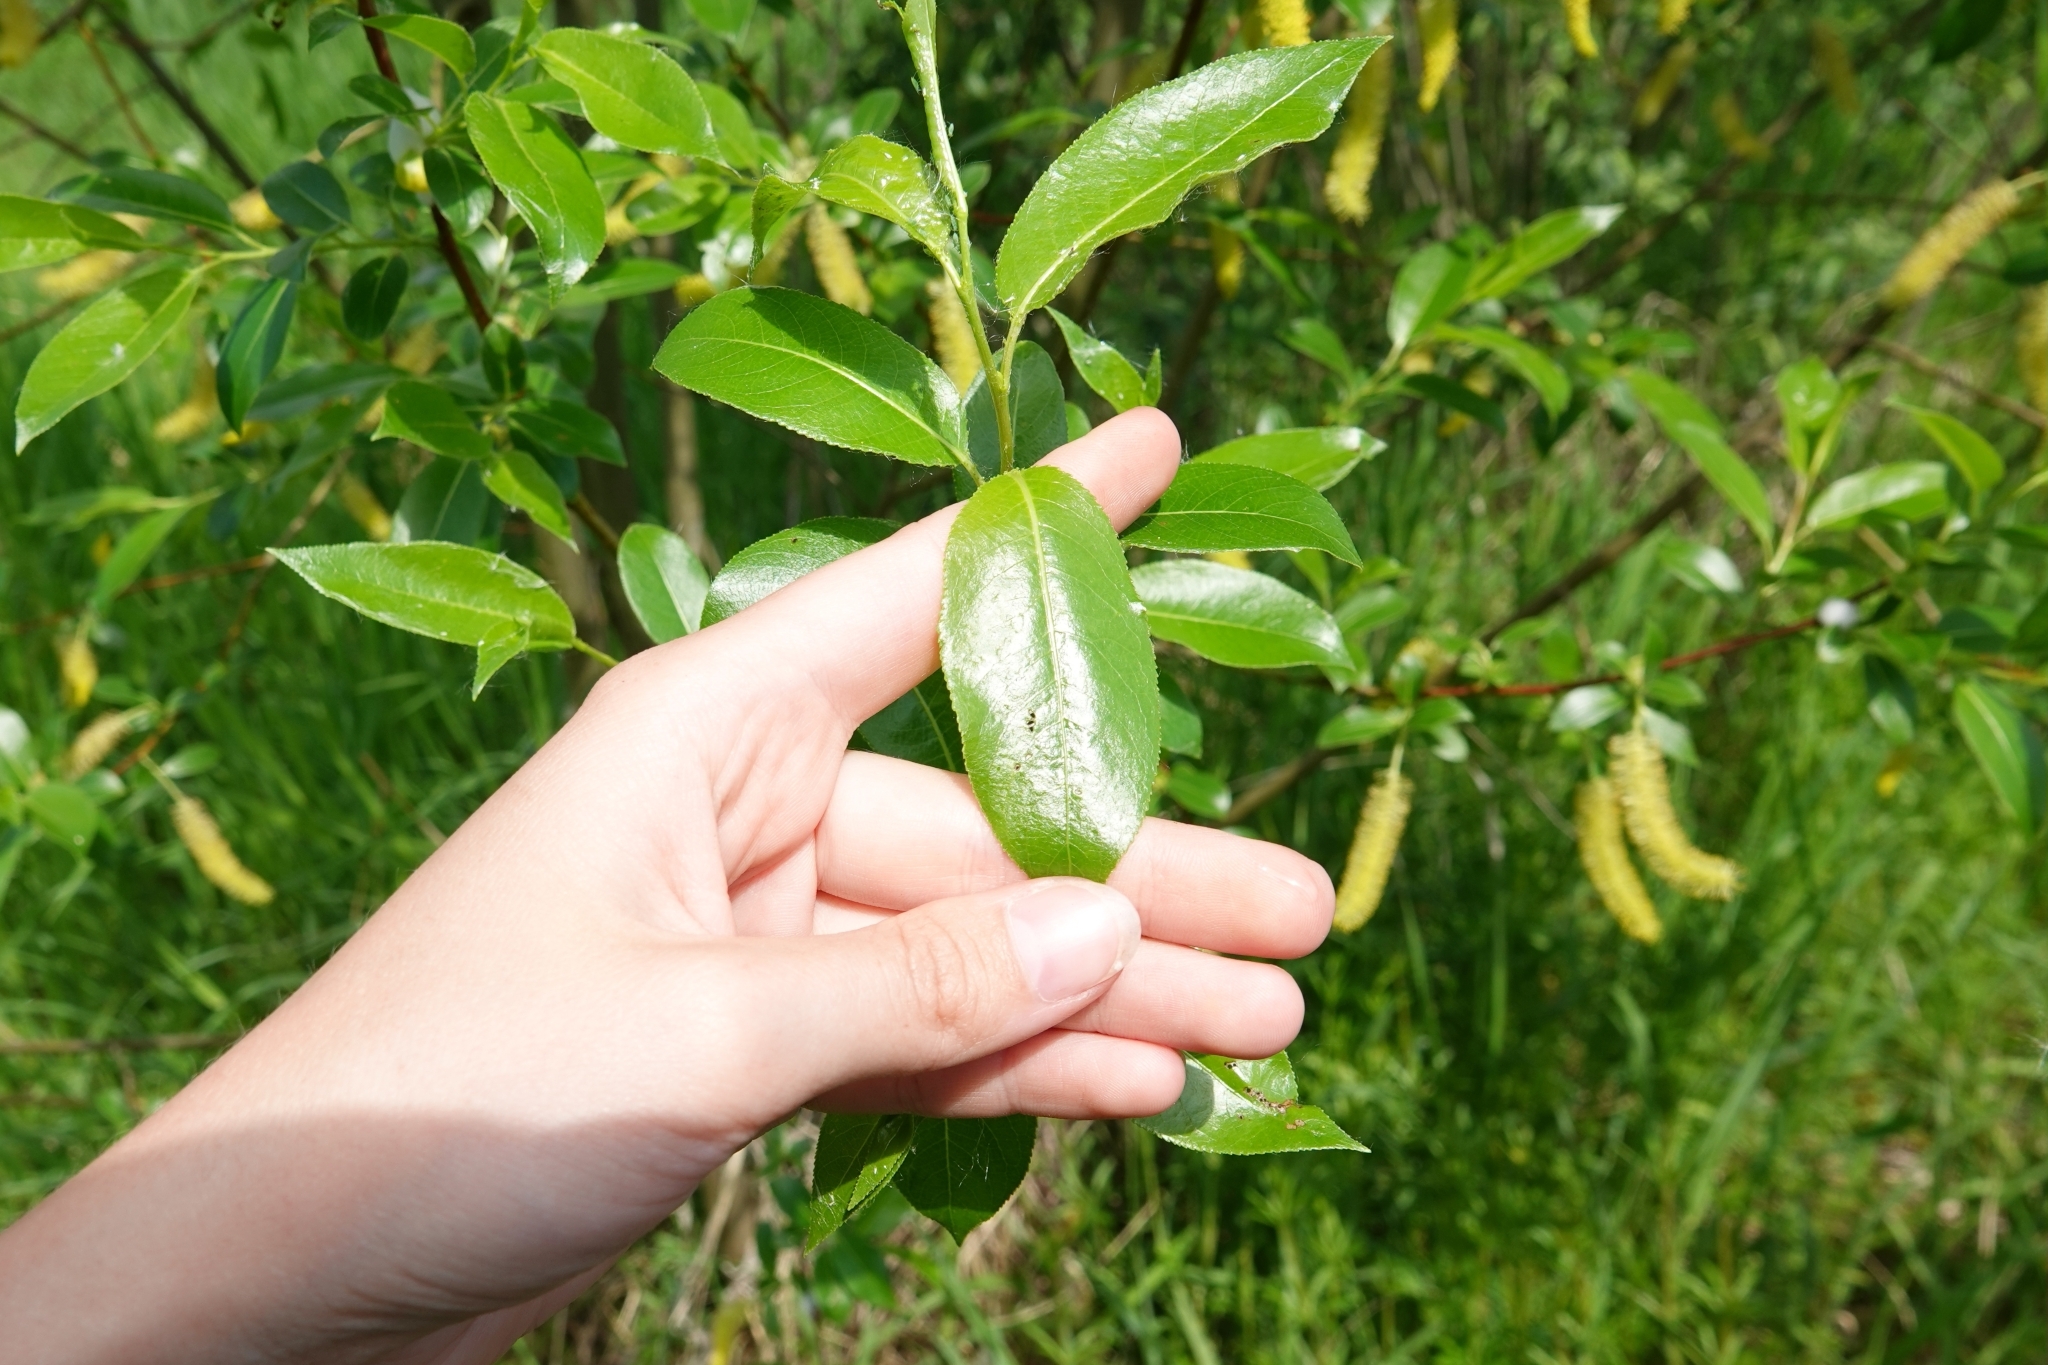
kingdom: Plantae
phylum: Tracheophyta
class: Magnoliopsida
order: Malpighiales
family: Salicaceae
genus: Salix
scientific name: Salix pentandra
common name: Bay willow
